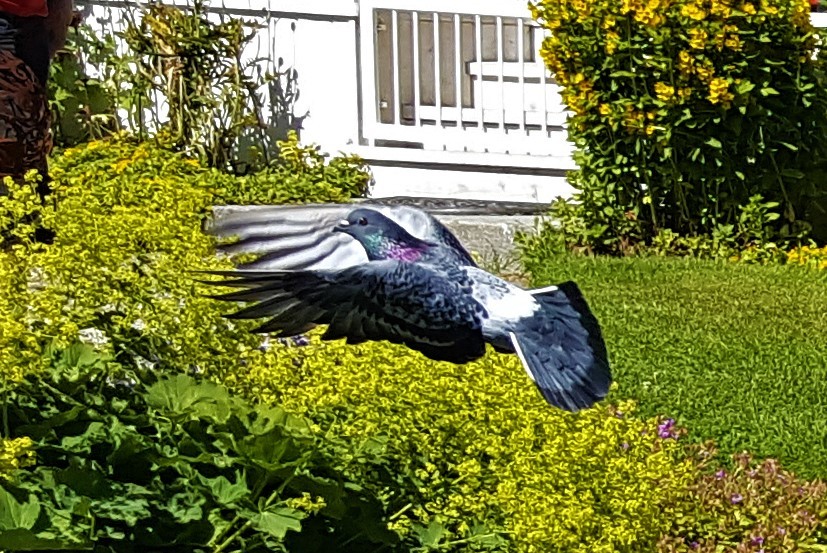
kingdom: Animalia
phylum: Chordata
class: Aves
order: Columbiformes
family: Columbidae
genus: Columba
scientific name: Columba livia
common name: Rock pigeon
